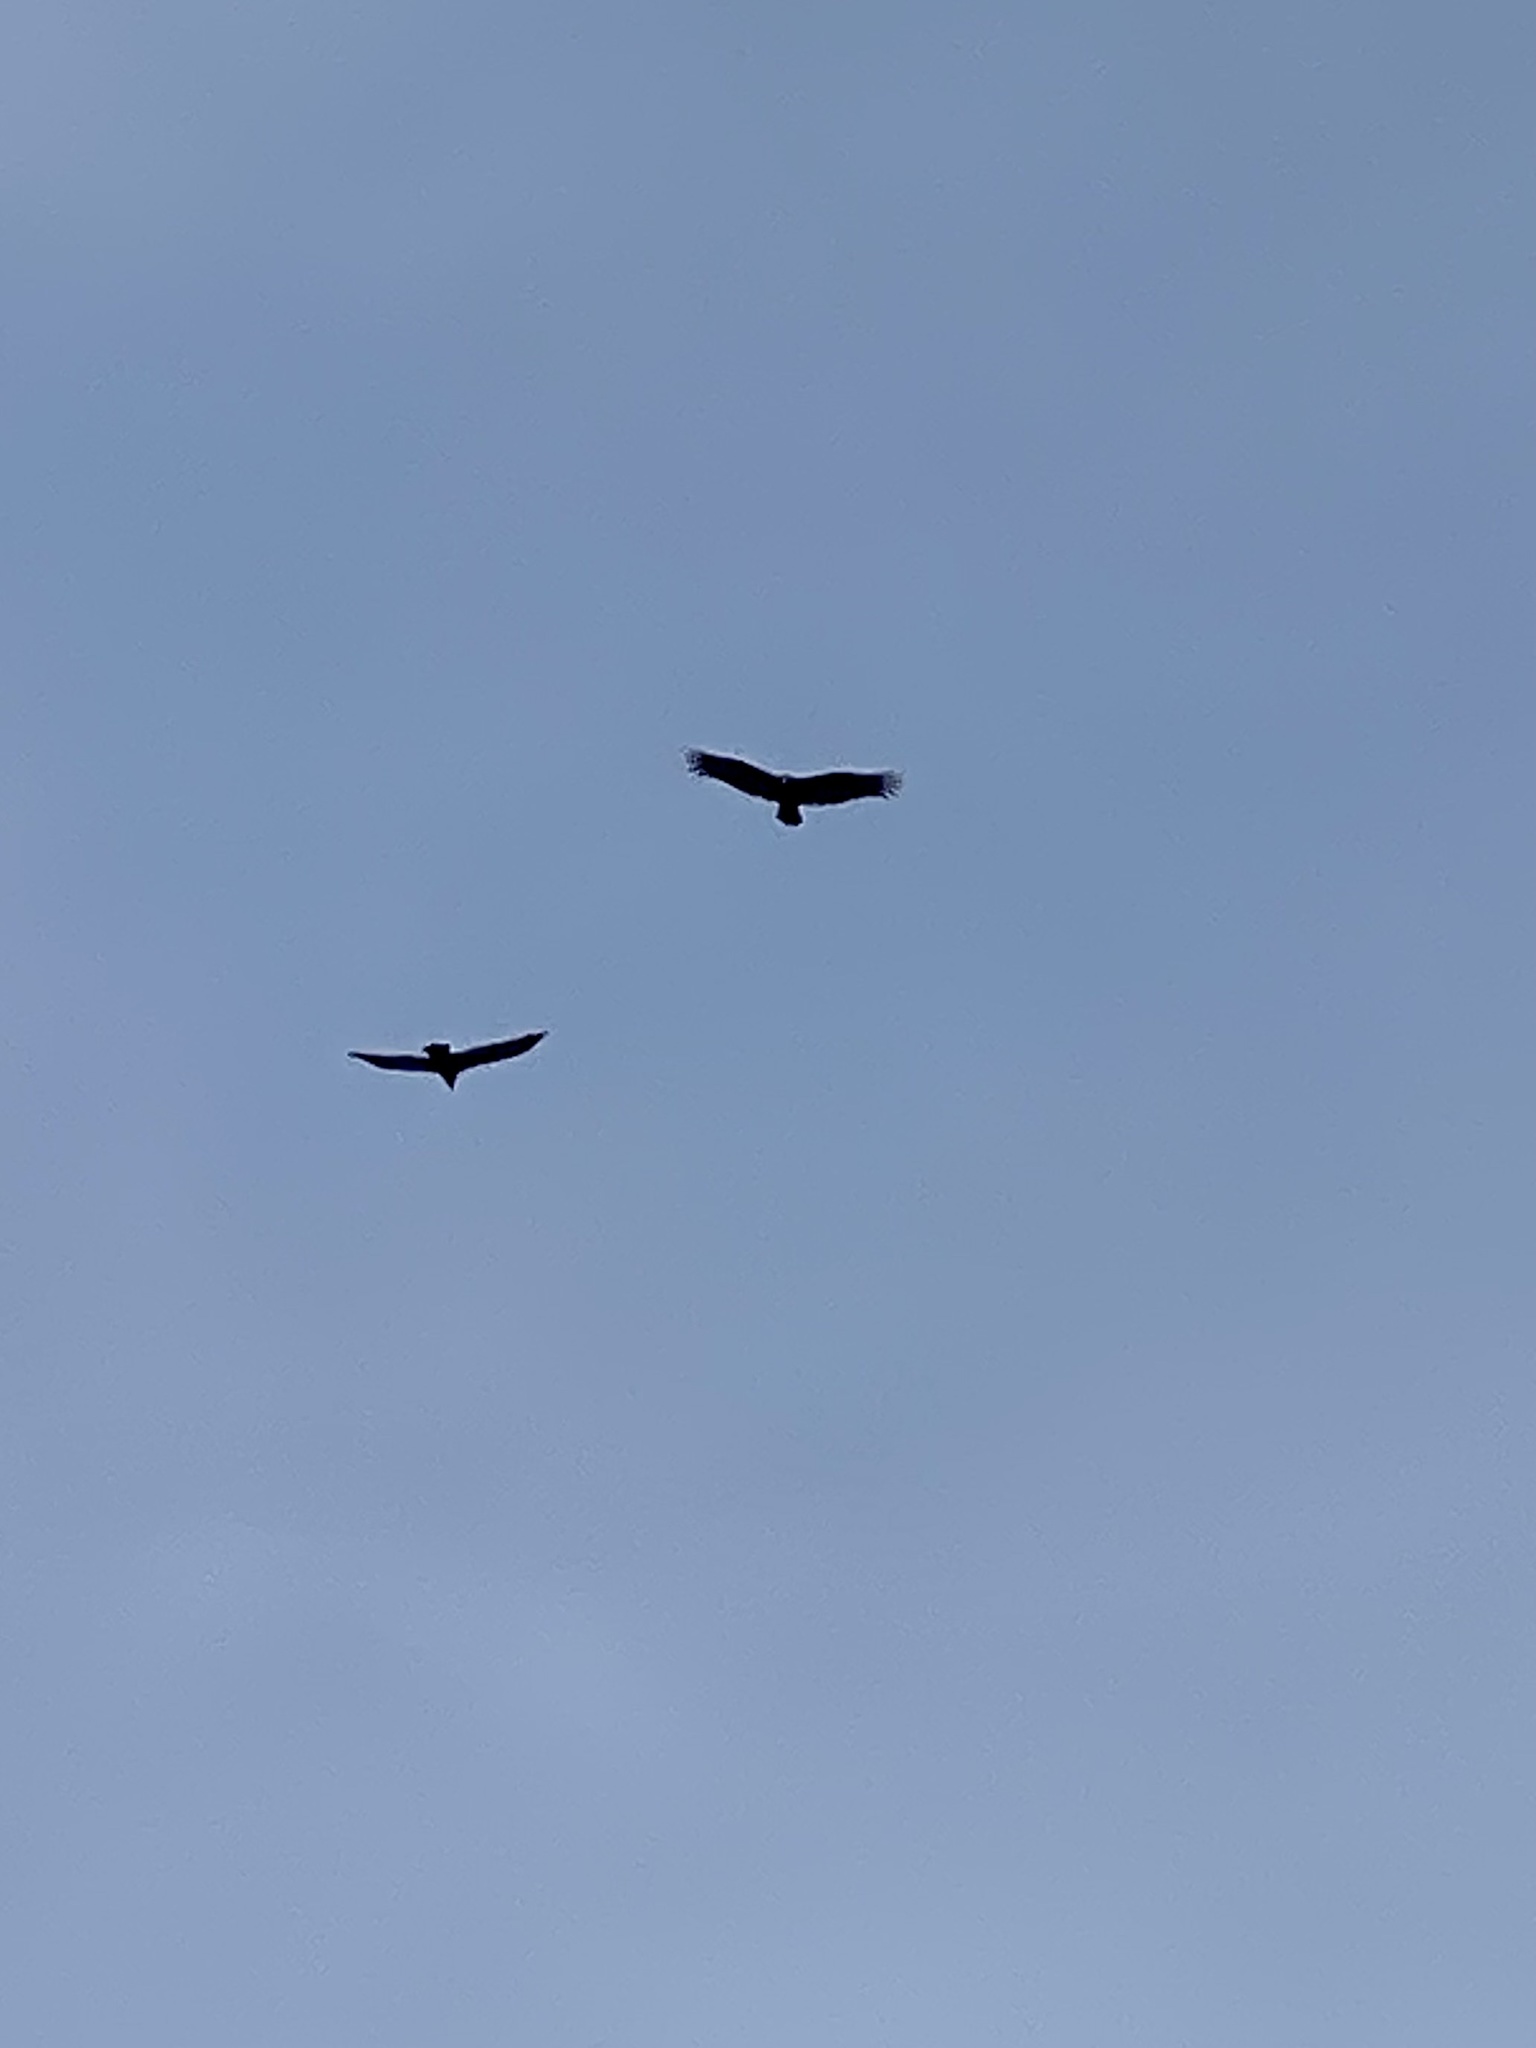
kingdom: Animalia
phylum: Chordata
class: Aves
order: Accipitriformes
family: Cathartidae
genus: Cathartes
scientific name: Cathartes aura
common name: Turkey vulture
